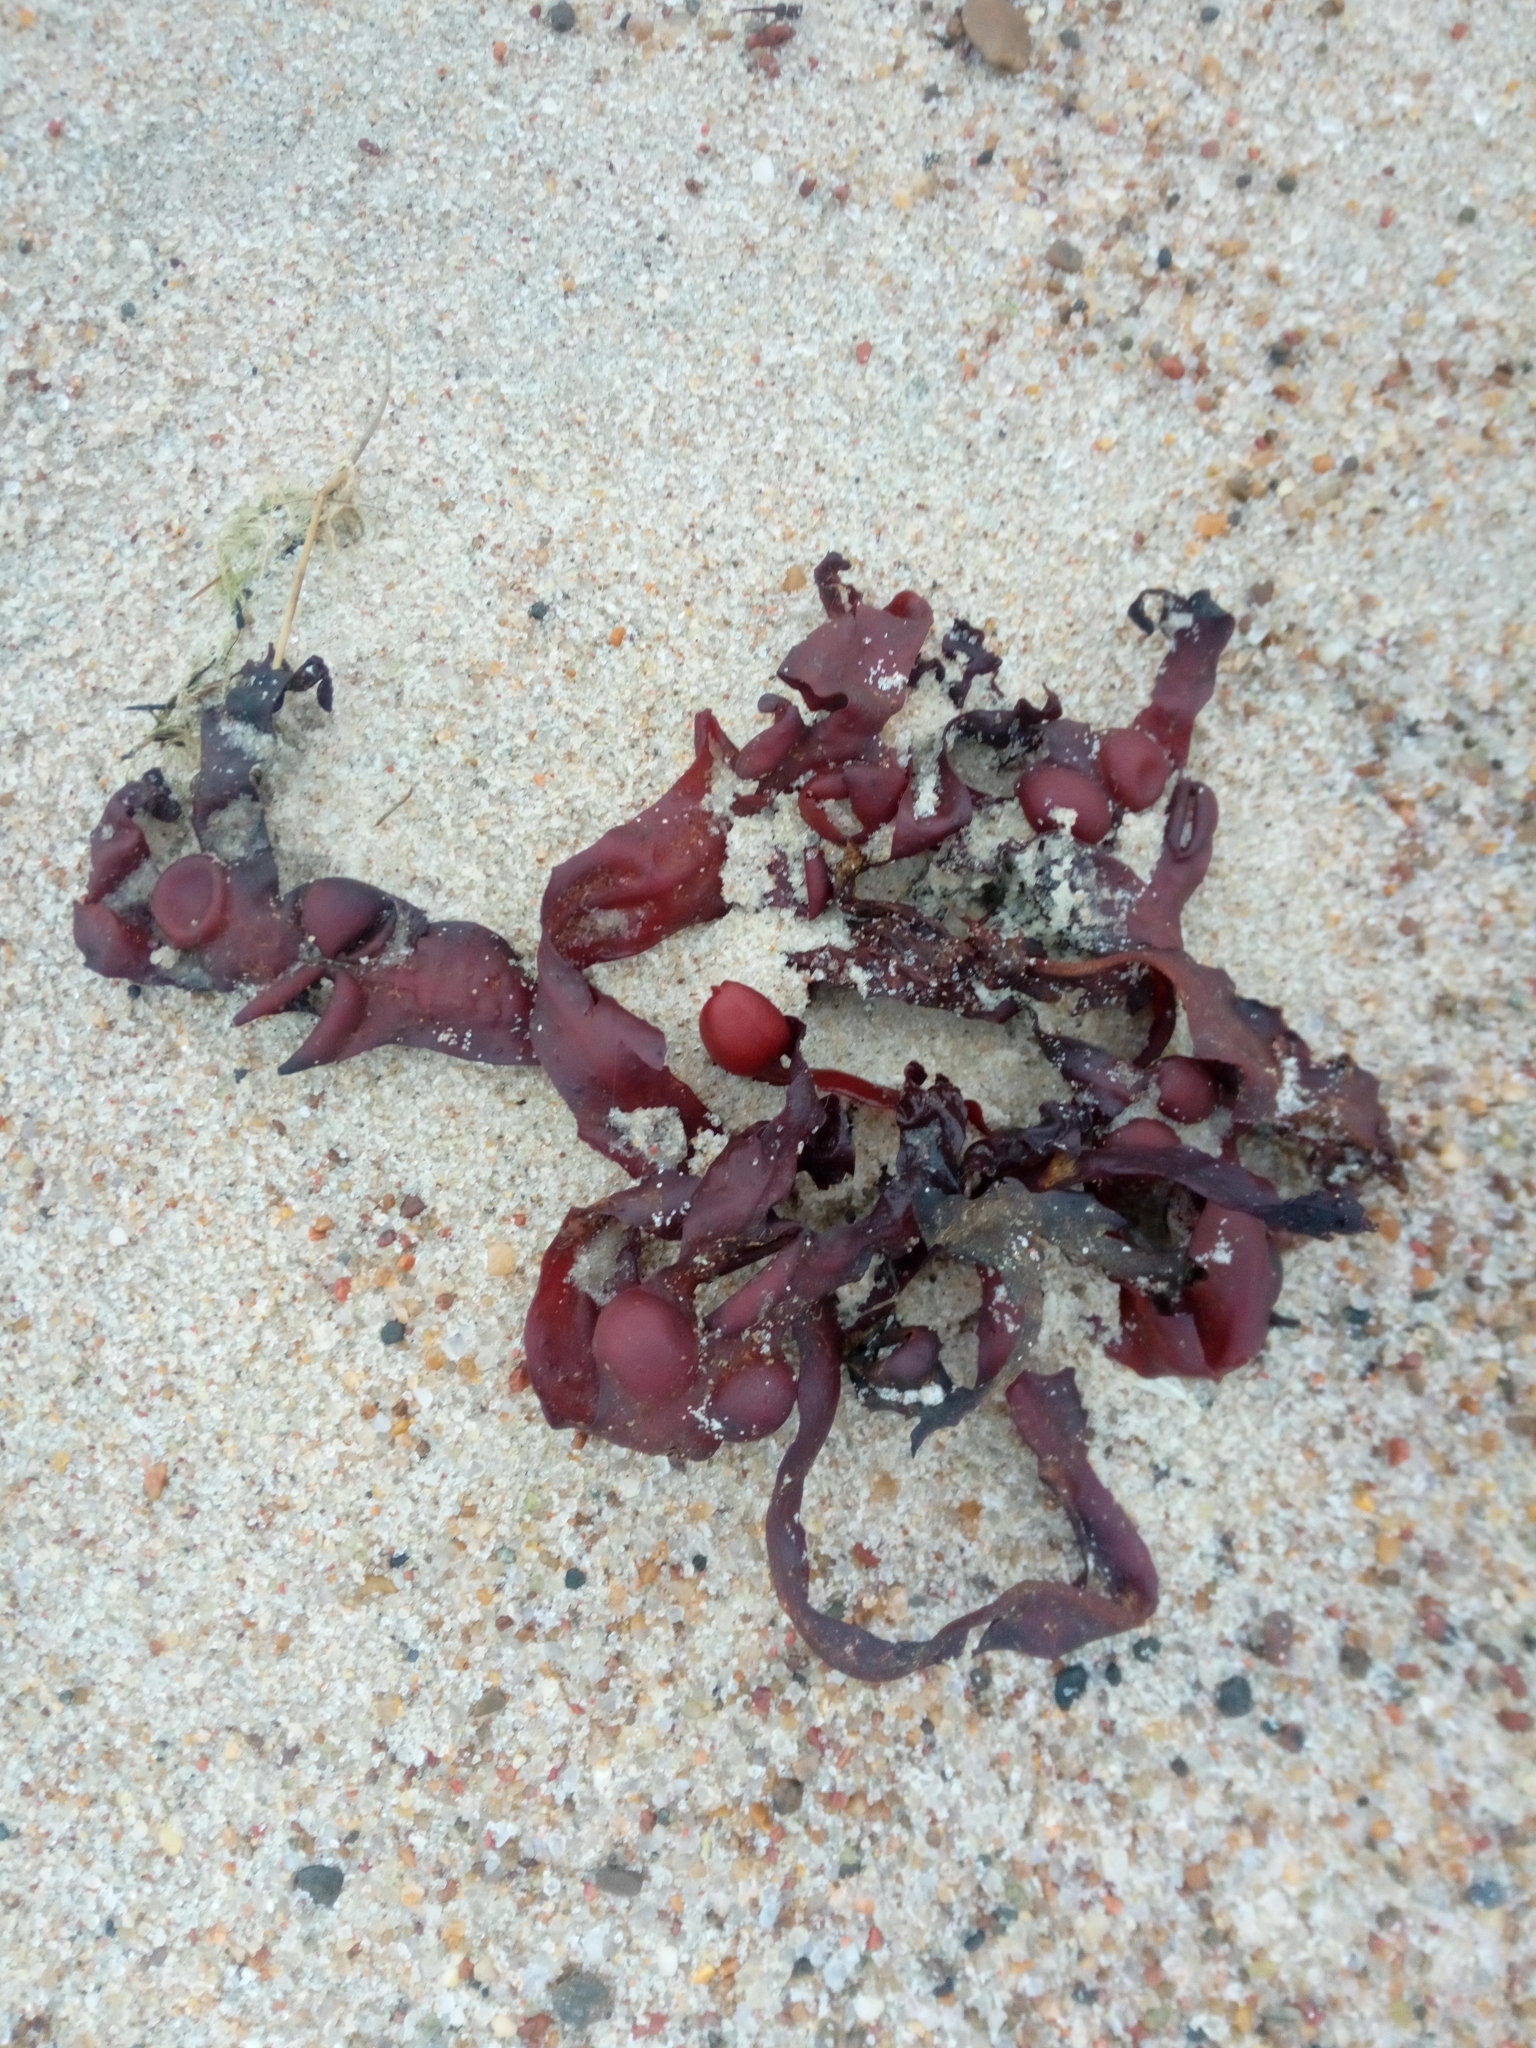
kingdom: Chromista
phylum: Ochrophyta
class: Phaeophyceae
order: Fucales
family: Fucaceae
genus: Fucus
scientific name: Fucus vesiculosus
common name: Bladder wrack
